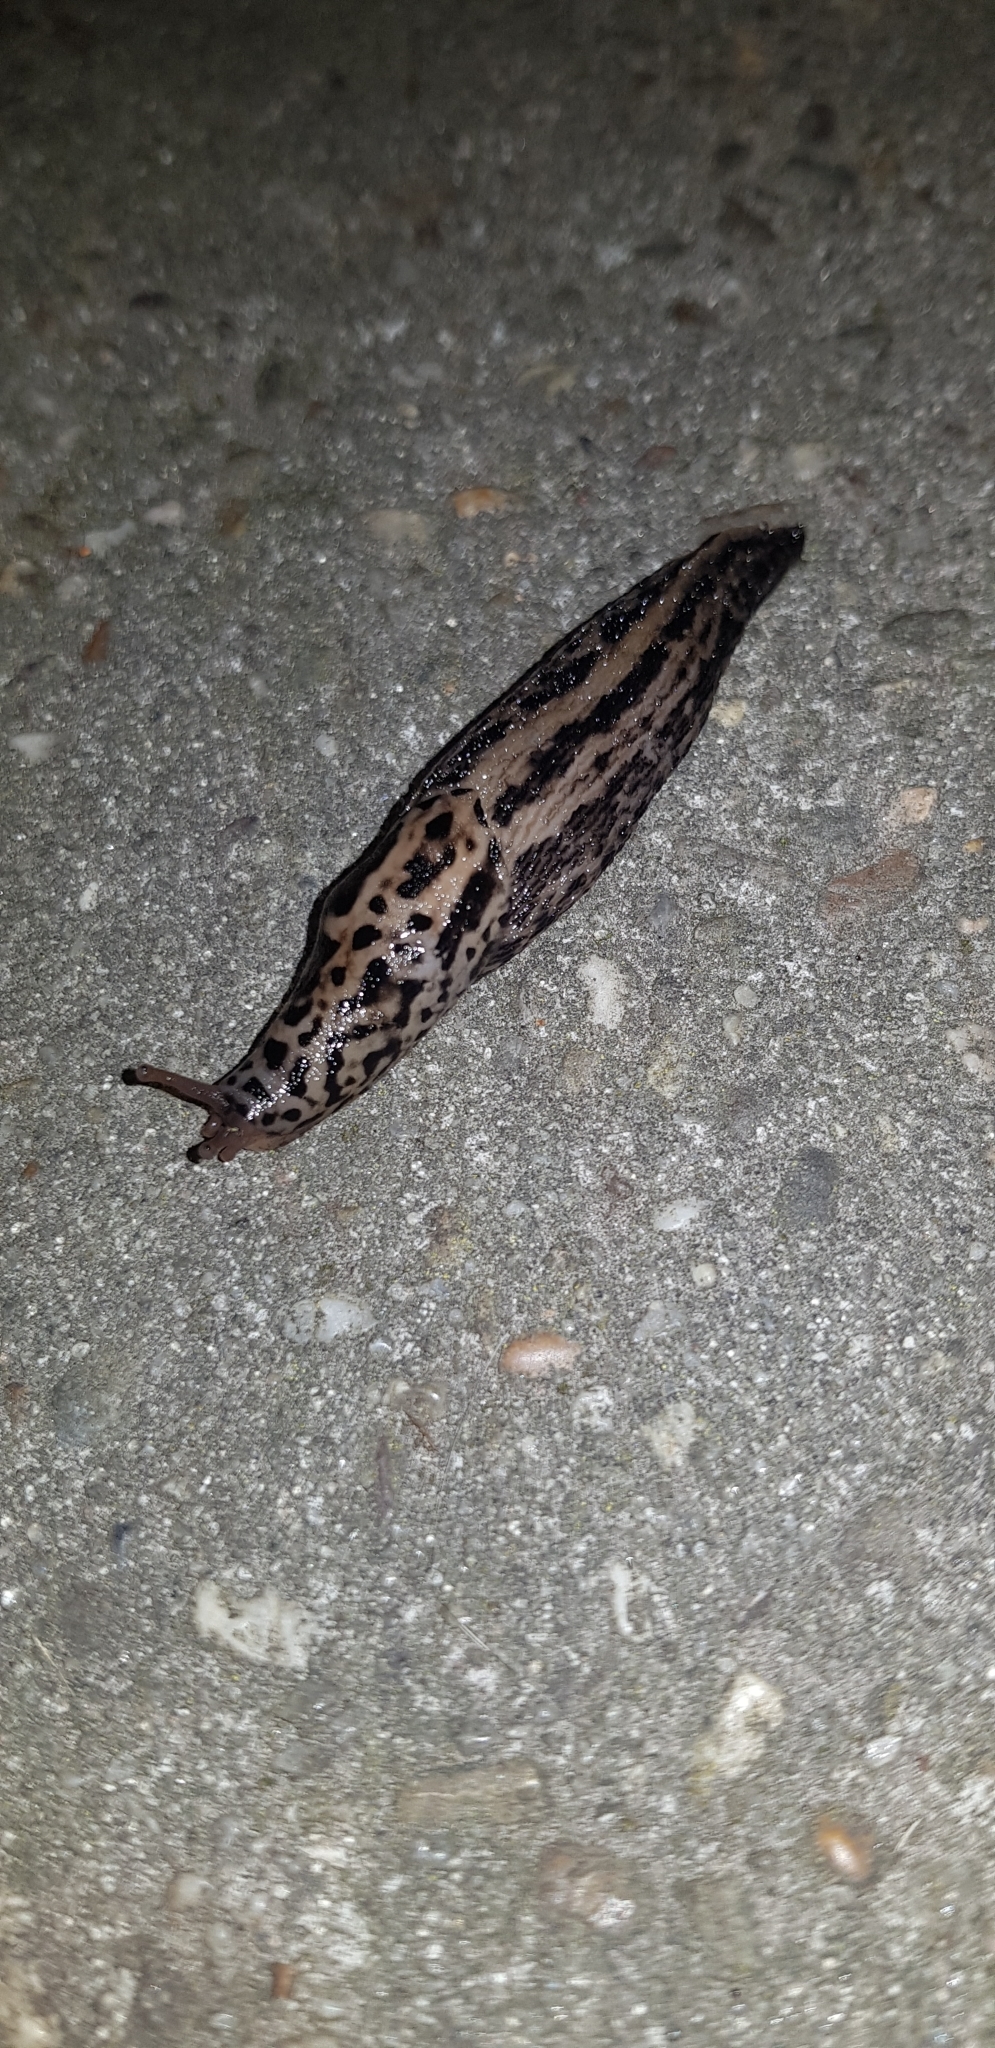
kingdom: Animalia
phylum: Mollusca
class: Gastropoda
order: Stylommatophora
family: Limacidae
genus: Limax
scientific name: Limax maximus
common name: Great grey slug
